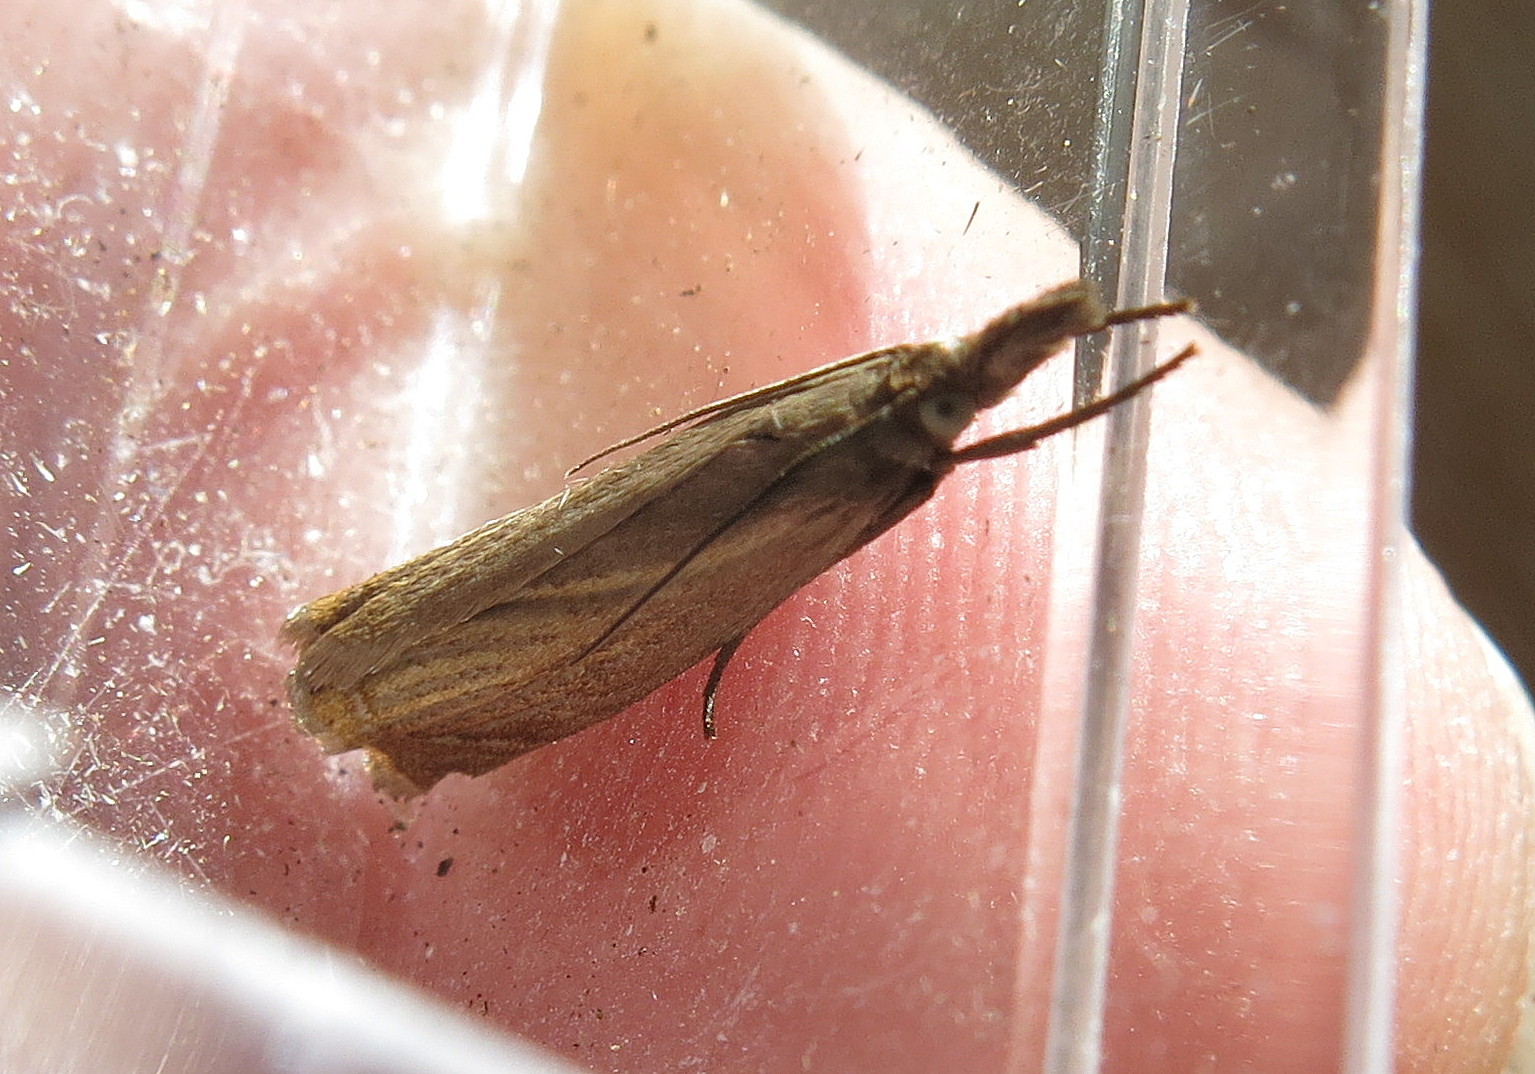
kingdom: Animalia
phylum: Arthropoda
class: Insecta
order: Lepidoptera
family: Crambidae
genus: Chrysoteuchia
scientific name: Chrysoteuchia culmella
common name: Garden grass-veneer
